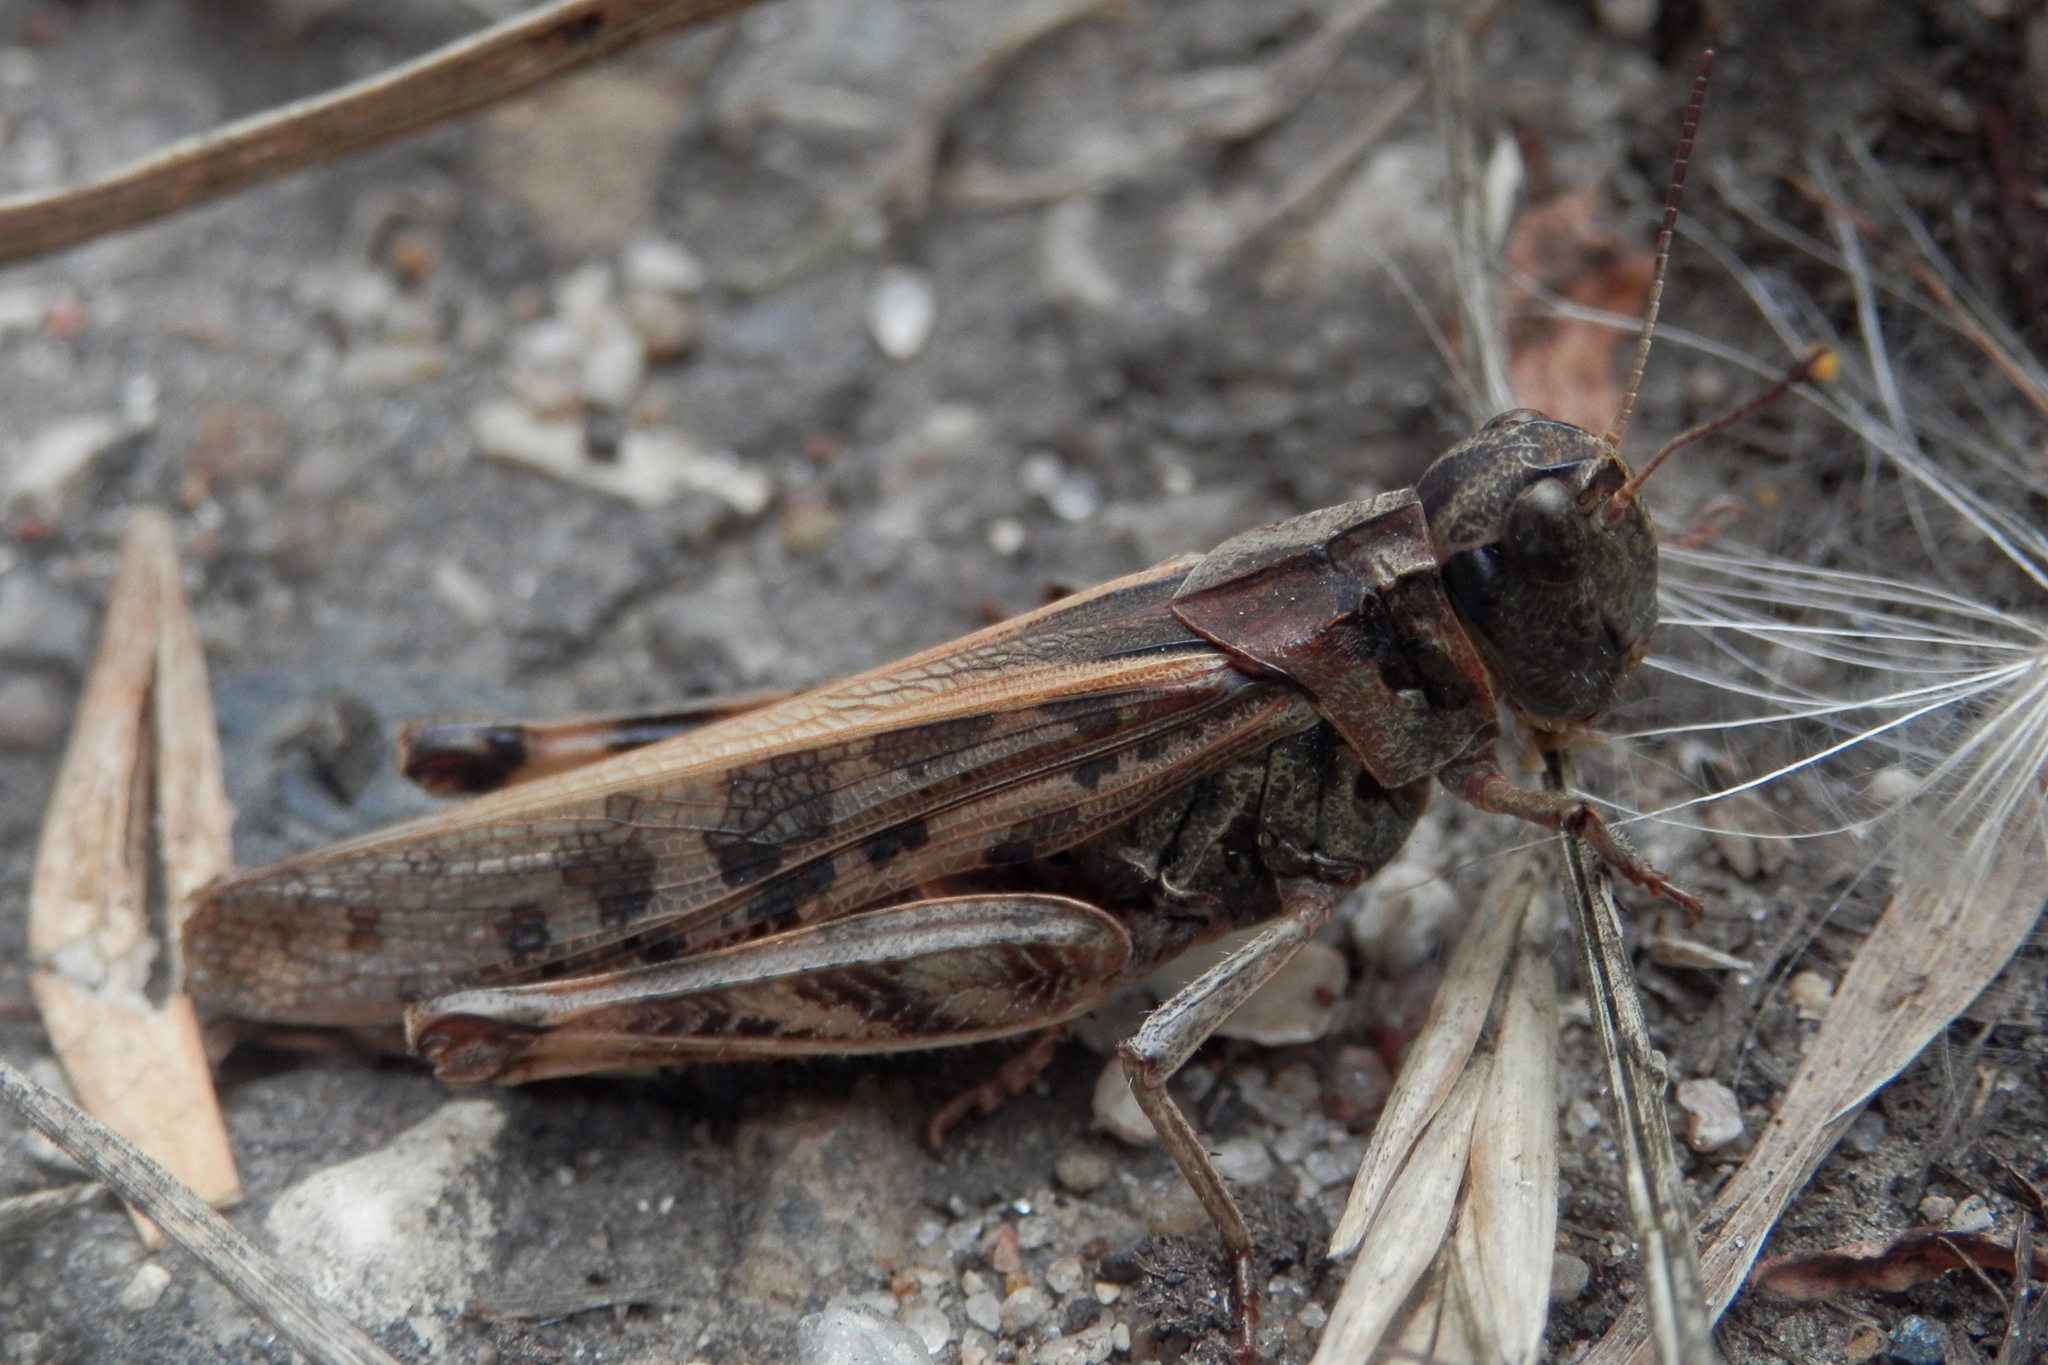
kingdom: Animalia
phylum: Arthropoda
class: Insecta
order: Orthoptera
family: Acrididae
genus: Camnula
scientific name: Camnula pellucida
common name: Clear-winged grasshopper
